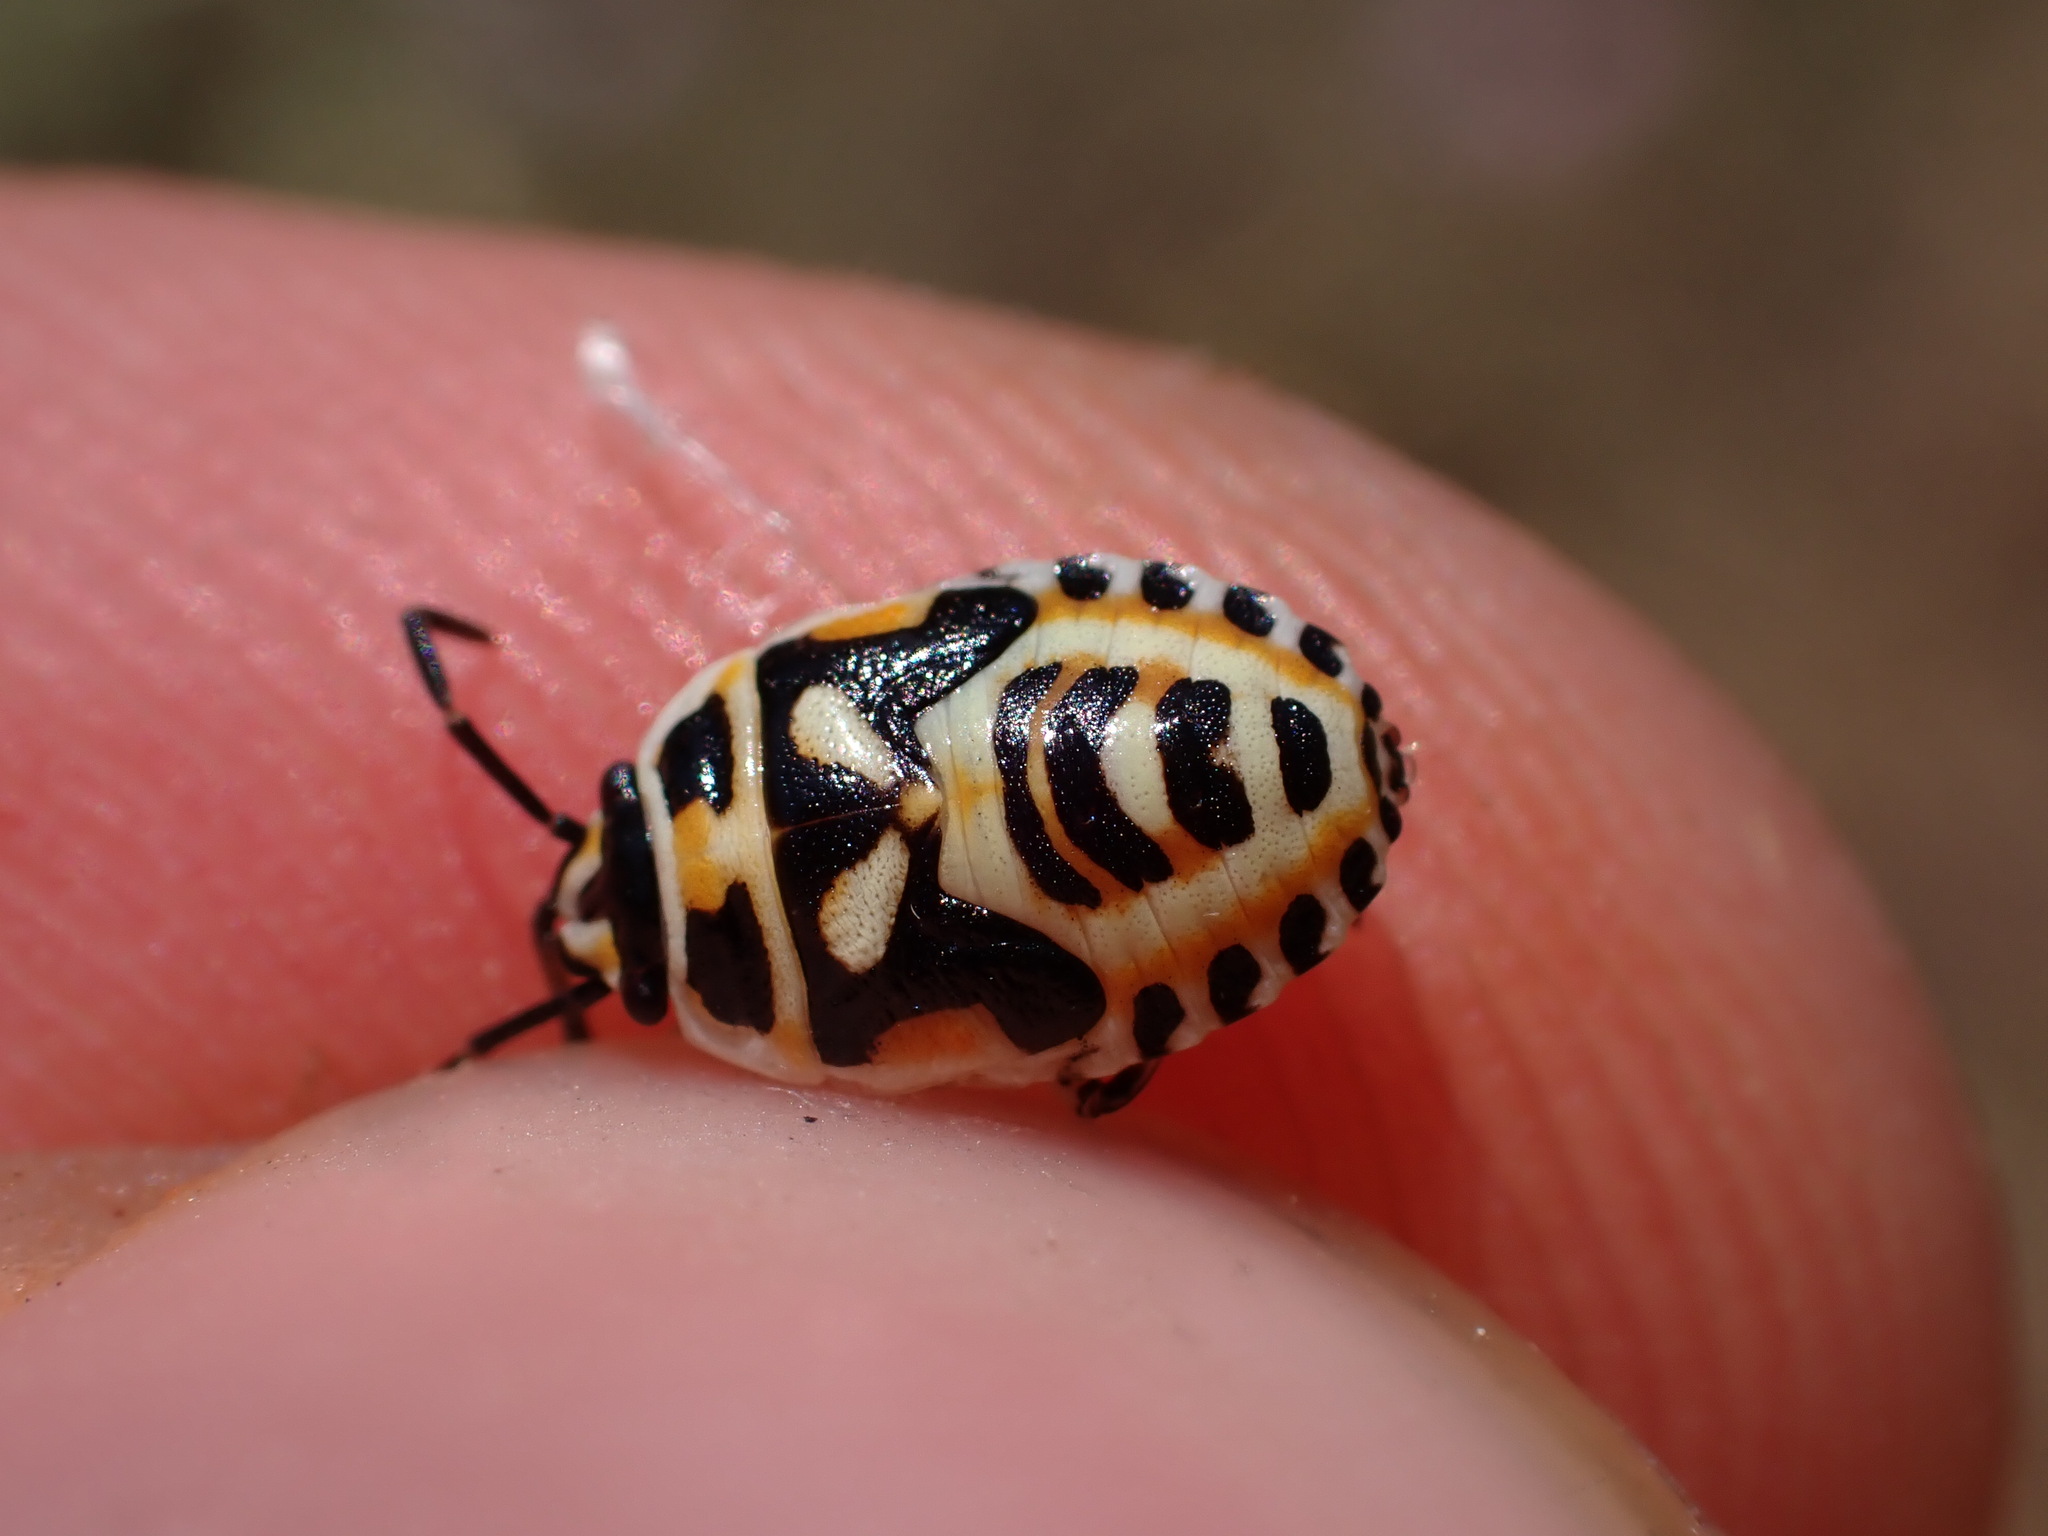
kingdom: Animalia
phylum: Arthropoda
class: Insecta
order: Hemiptera
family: Pentatomidae
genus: Eurydema
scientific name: Eurydema ornata
